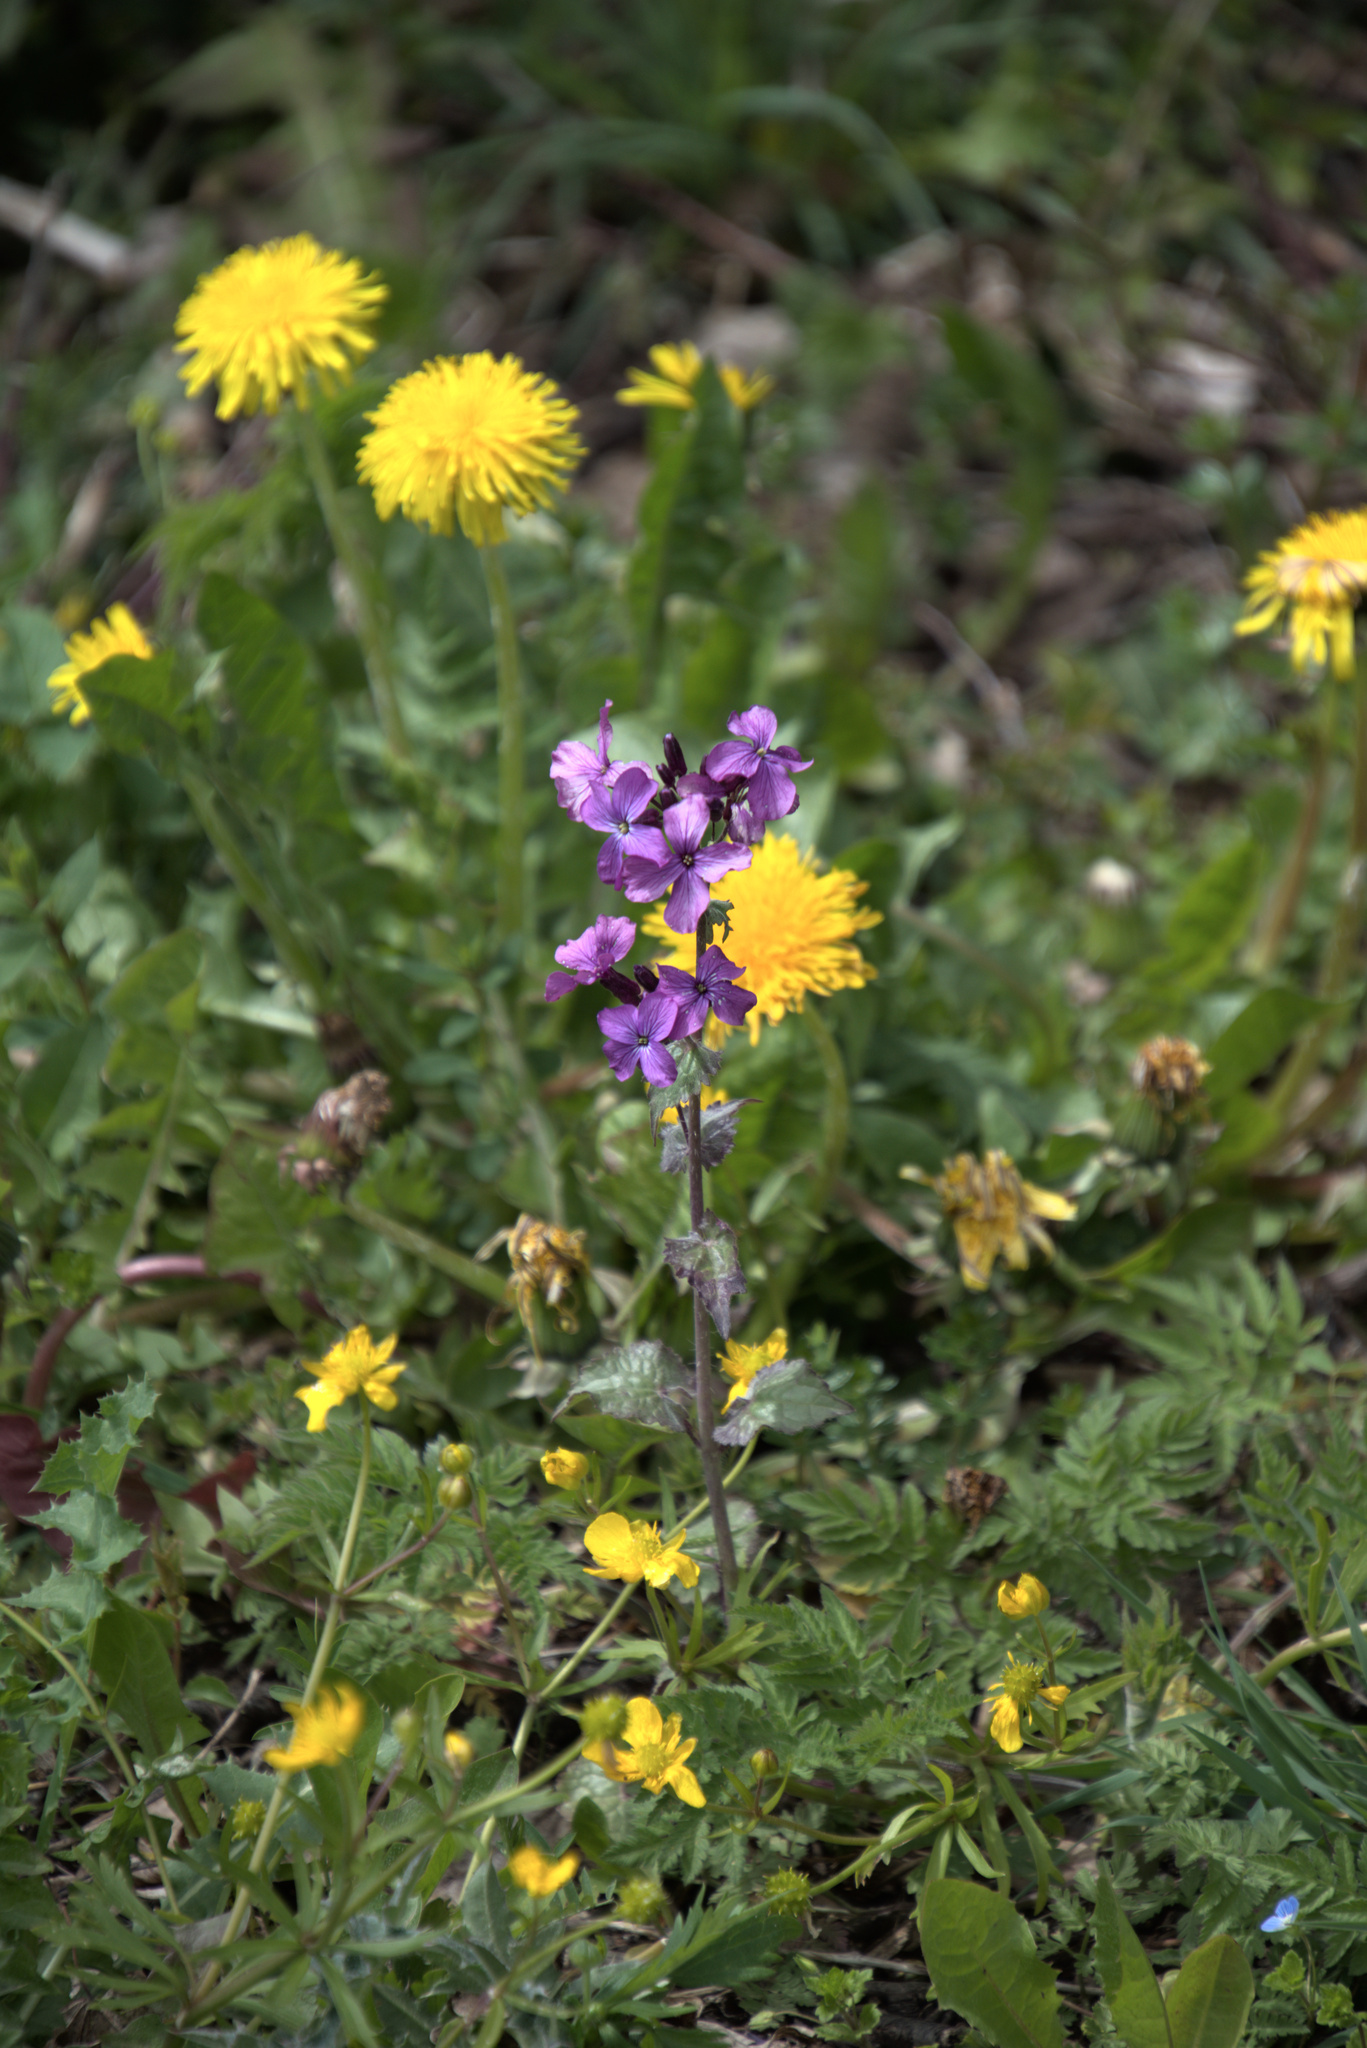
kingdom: Plantae
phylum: Tracheophyta
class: Magnoliopsida
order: Brassicales
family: Brassicaceae
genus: Lunaria
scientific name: Lunaria annua
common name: Honesty
